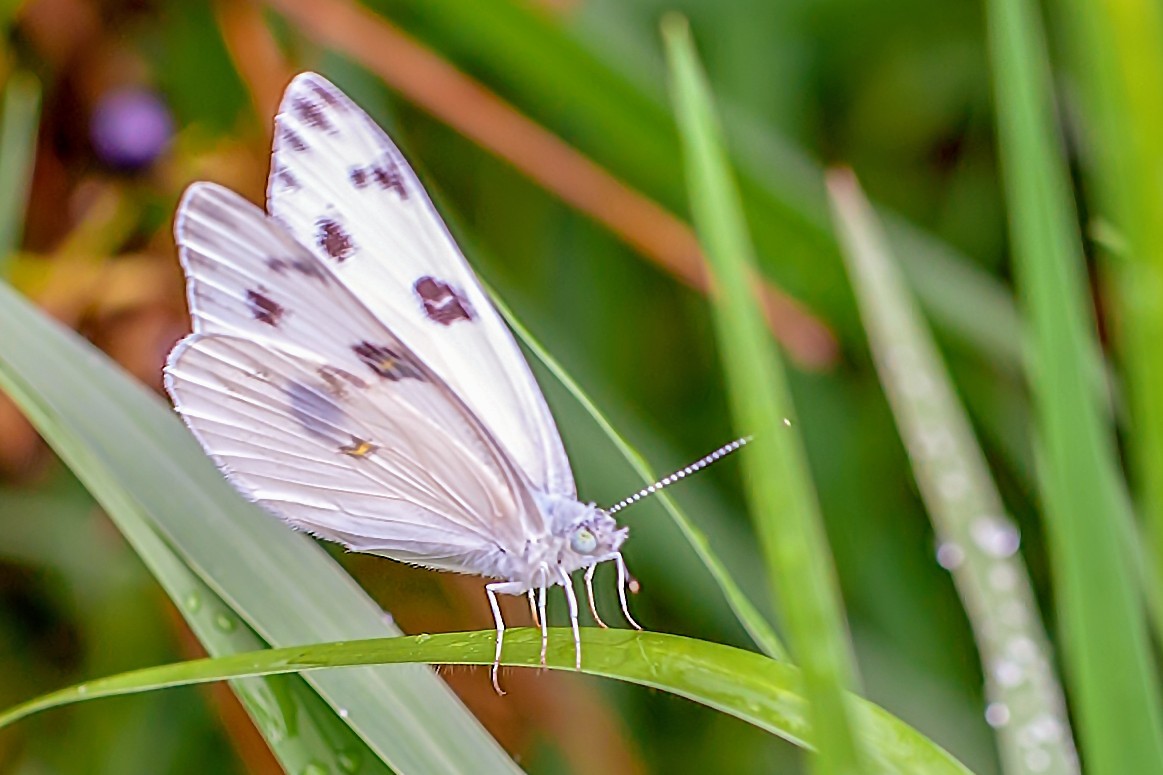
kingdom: Animalia
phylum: Arthropoda
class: Insecta
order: Lepidoptera
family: Pieridae
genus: Pontia
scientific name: Pontia protodice
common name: Checkered white
